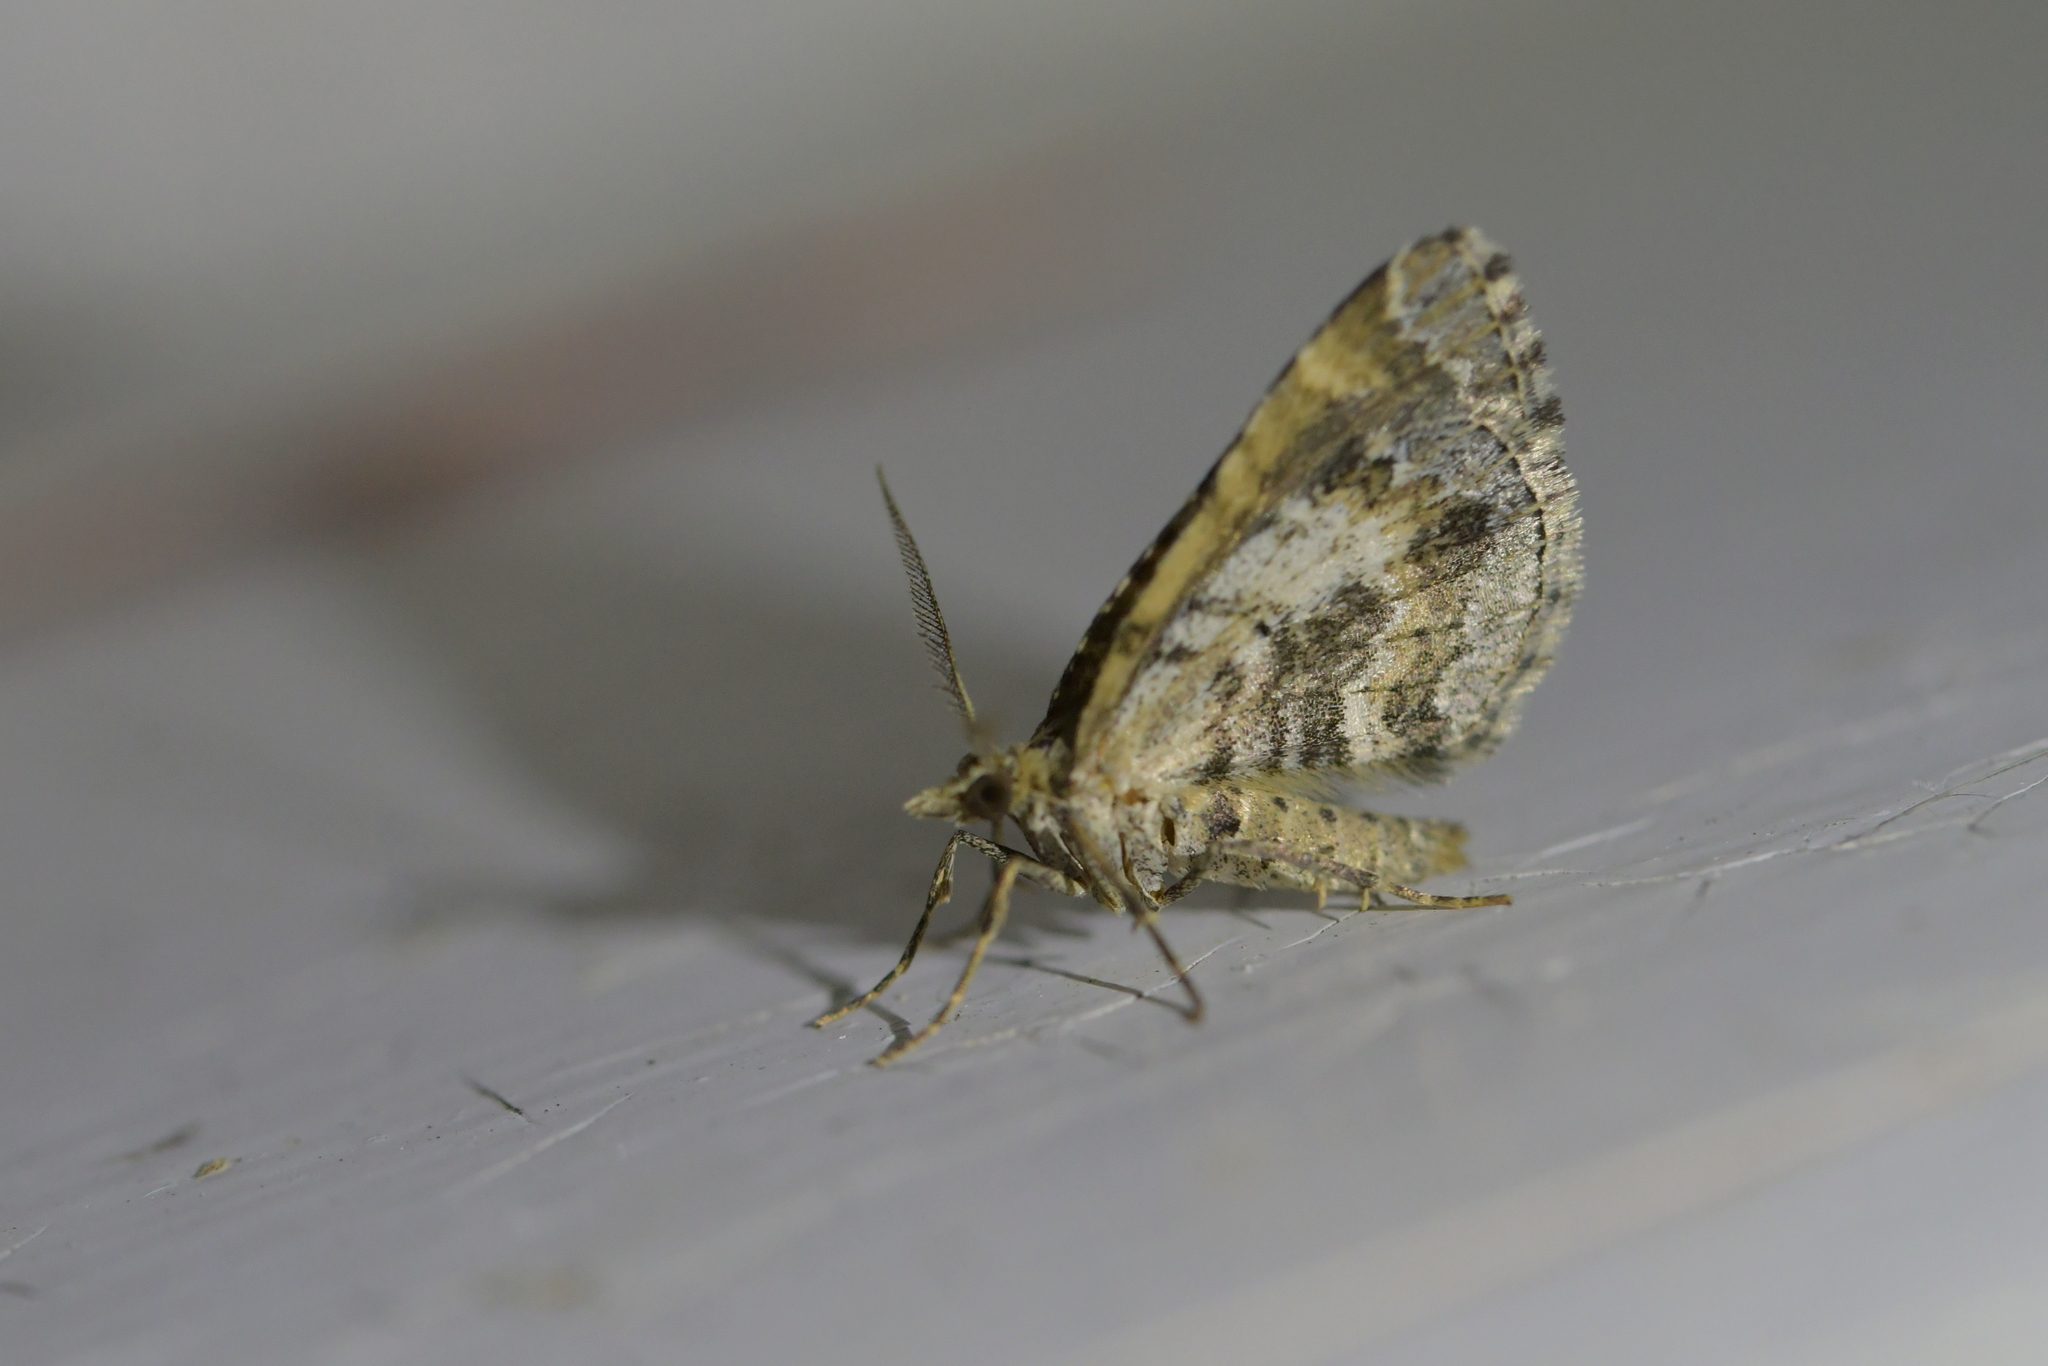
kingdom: Animalia
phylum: Arthropoda
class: Insecta
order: Lepidoptera
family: Geometridae
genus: Asaphodes
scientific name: Asaphodes aegrota
